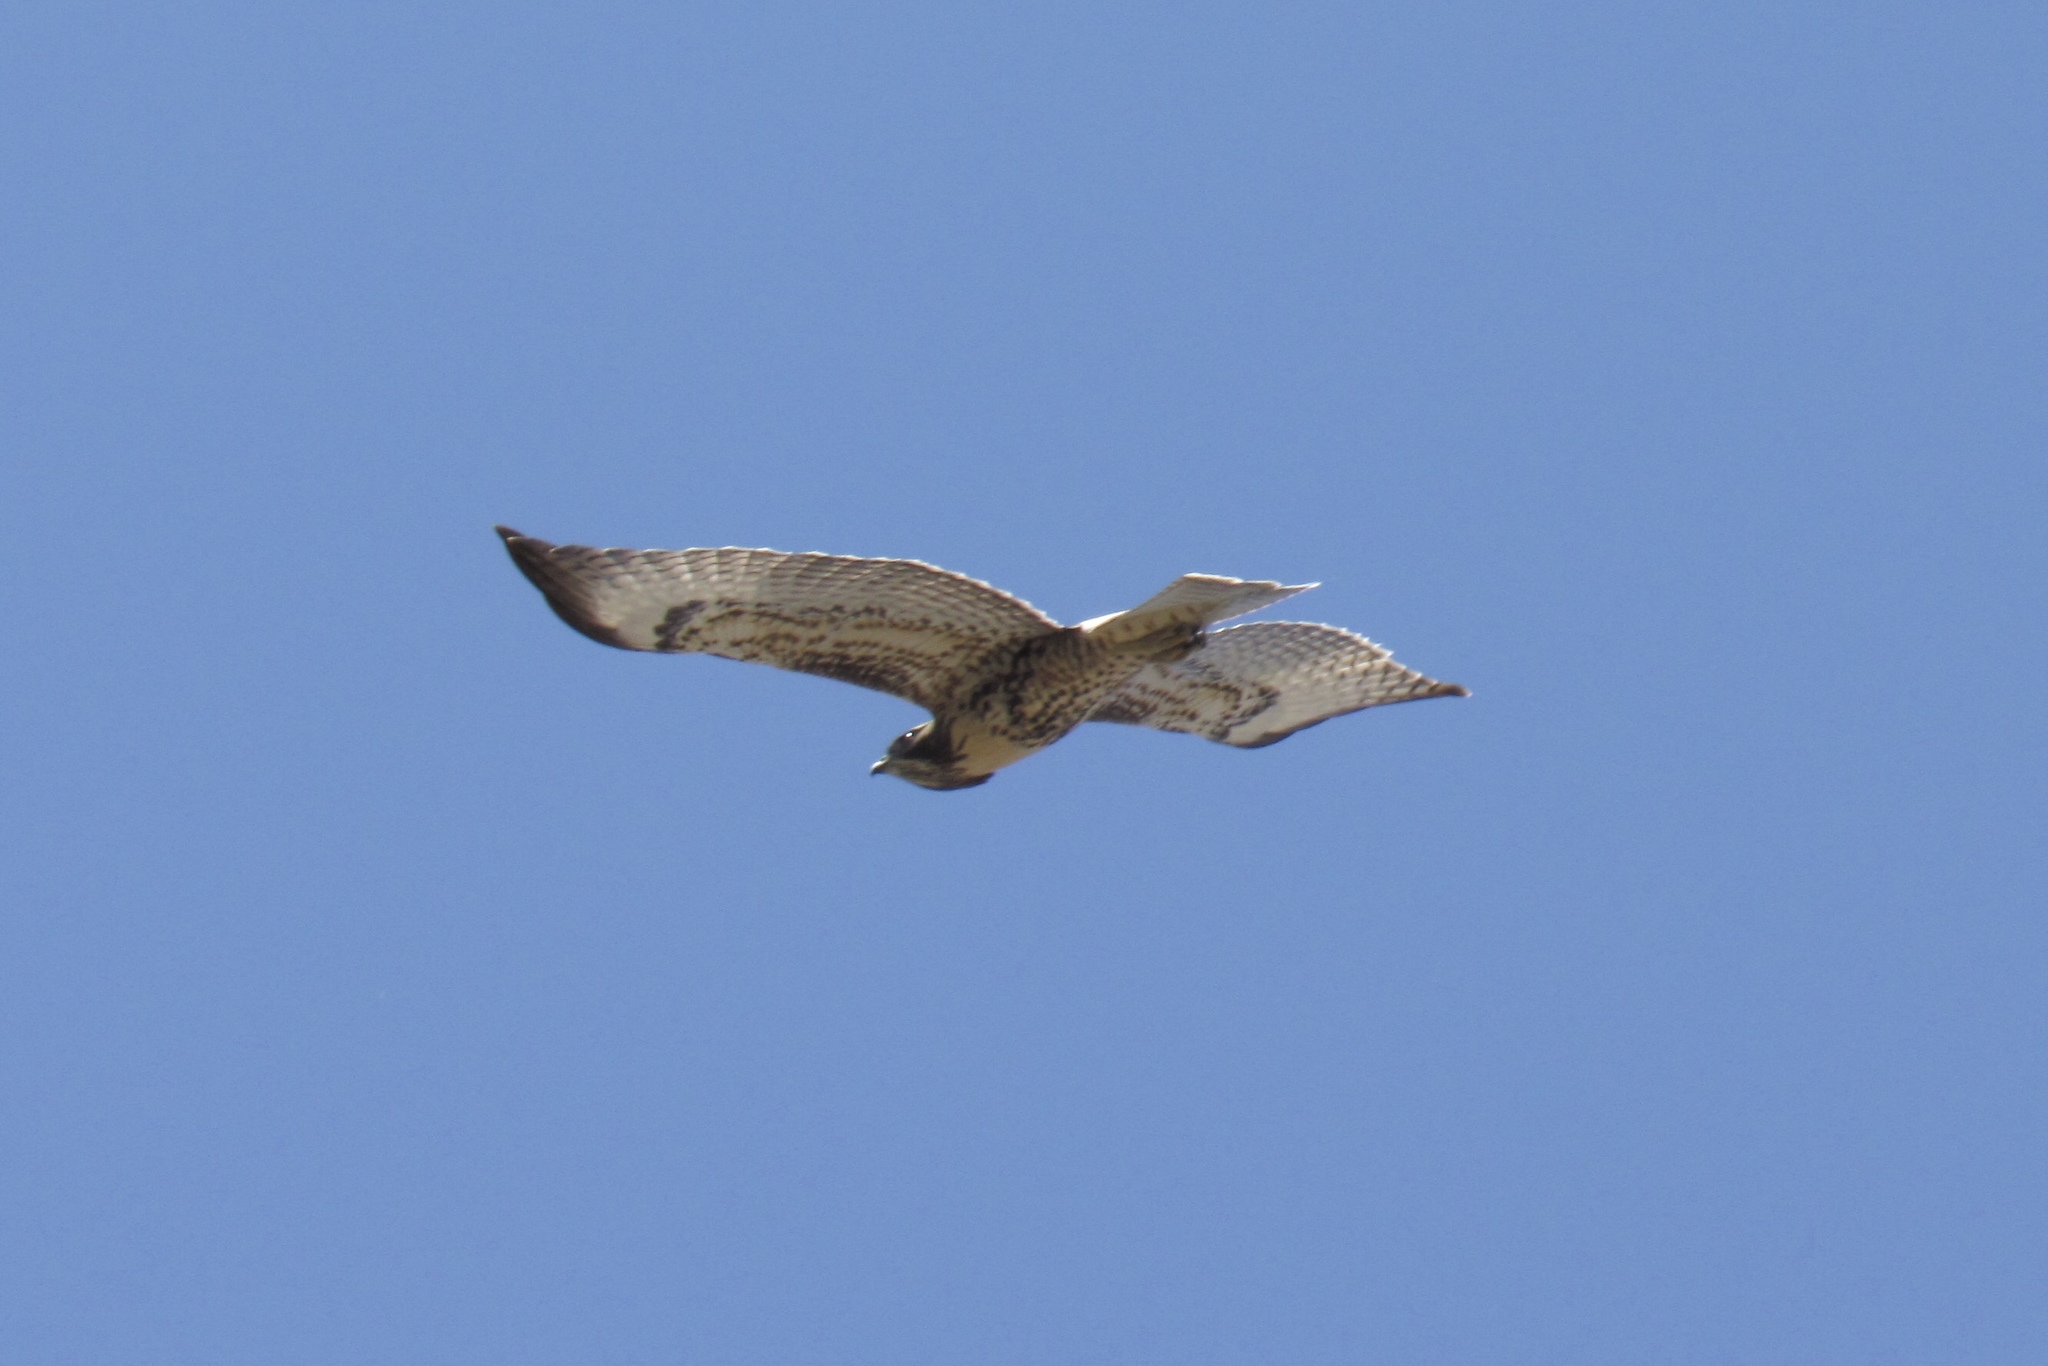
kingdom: Animalia
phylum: Chordata
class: Aves
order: Accipitriformes
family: Accipitridae
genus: Buteo
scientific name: Buteo jamaicensis
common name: Red-tailed hawk
